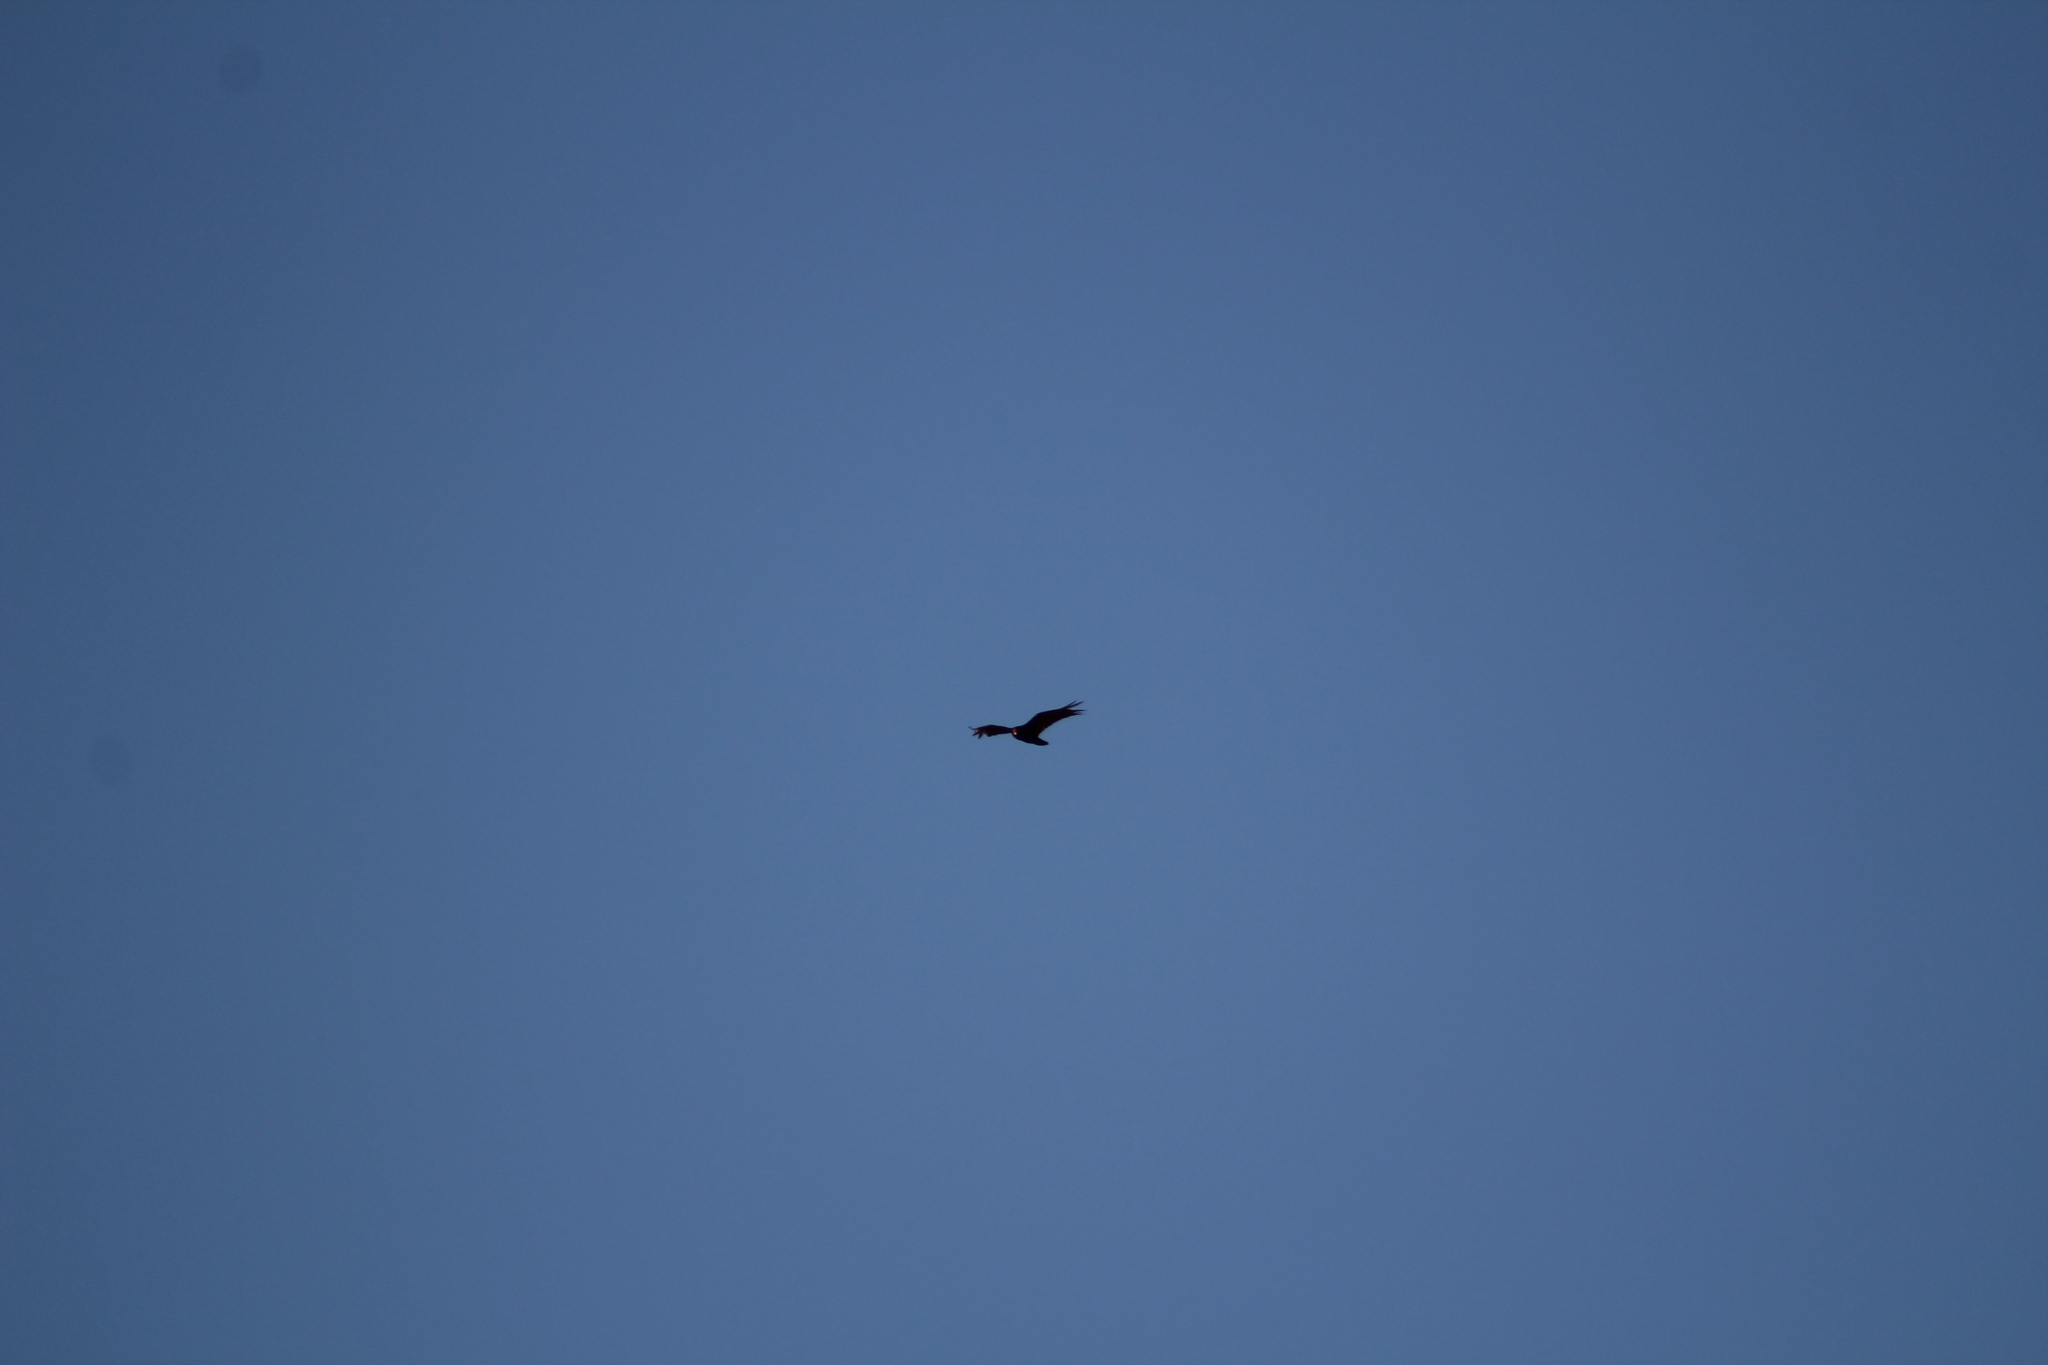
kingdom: Animalia
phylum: Chordata
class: Aves
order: Accipitriformes
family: Cathartidae
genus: Cathartes
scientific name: Cathartes aura
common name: Turkey vulture
